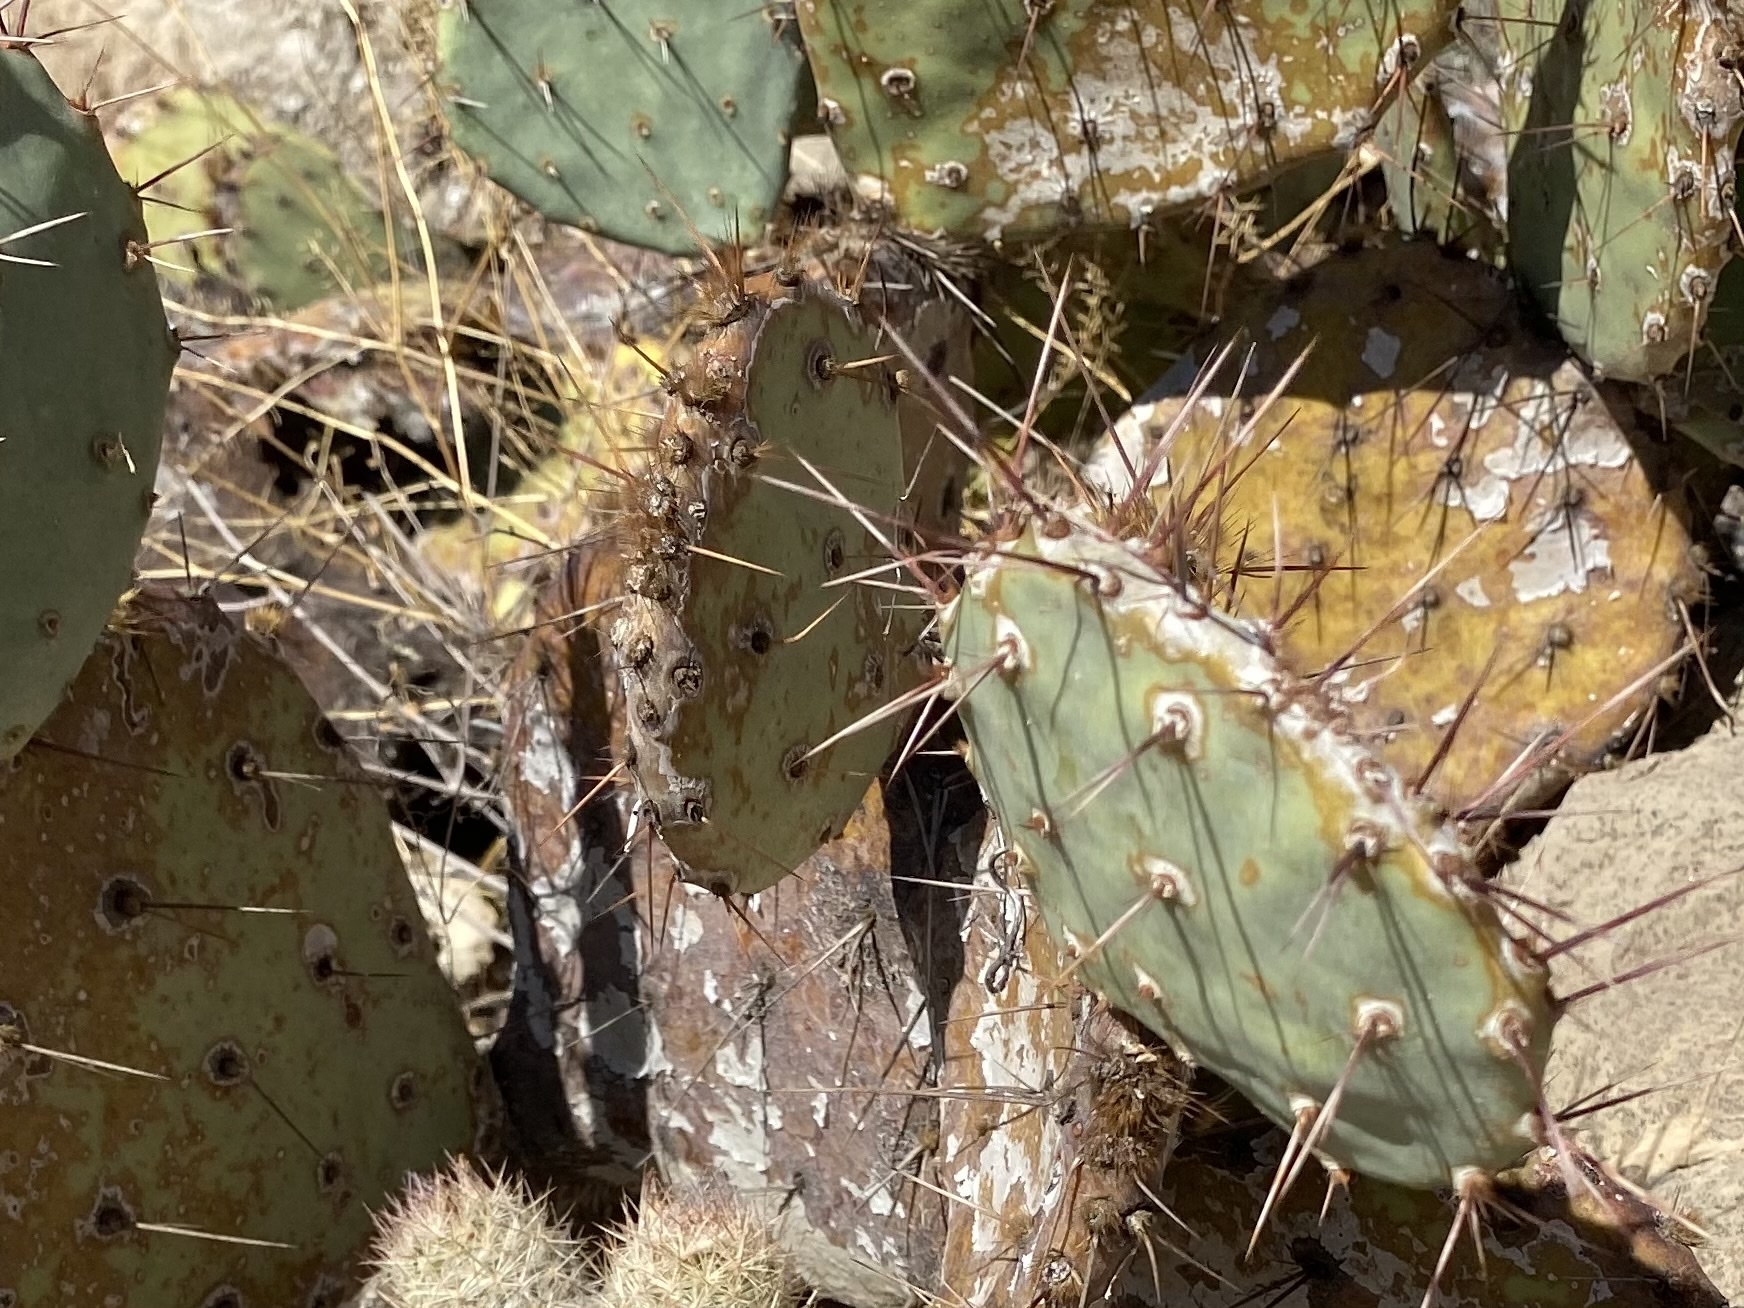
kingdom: Plantae
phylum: Tracheophyta
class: Magnoliopsida
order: Caryophyllales
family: Cactaceae
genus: Opuntia
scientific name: Opuntia phaeacantha
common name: New mexico prickly-pear
